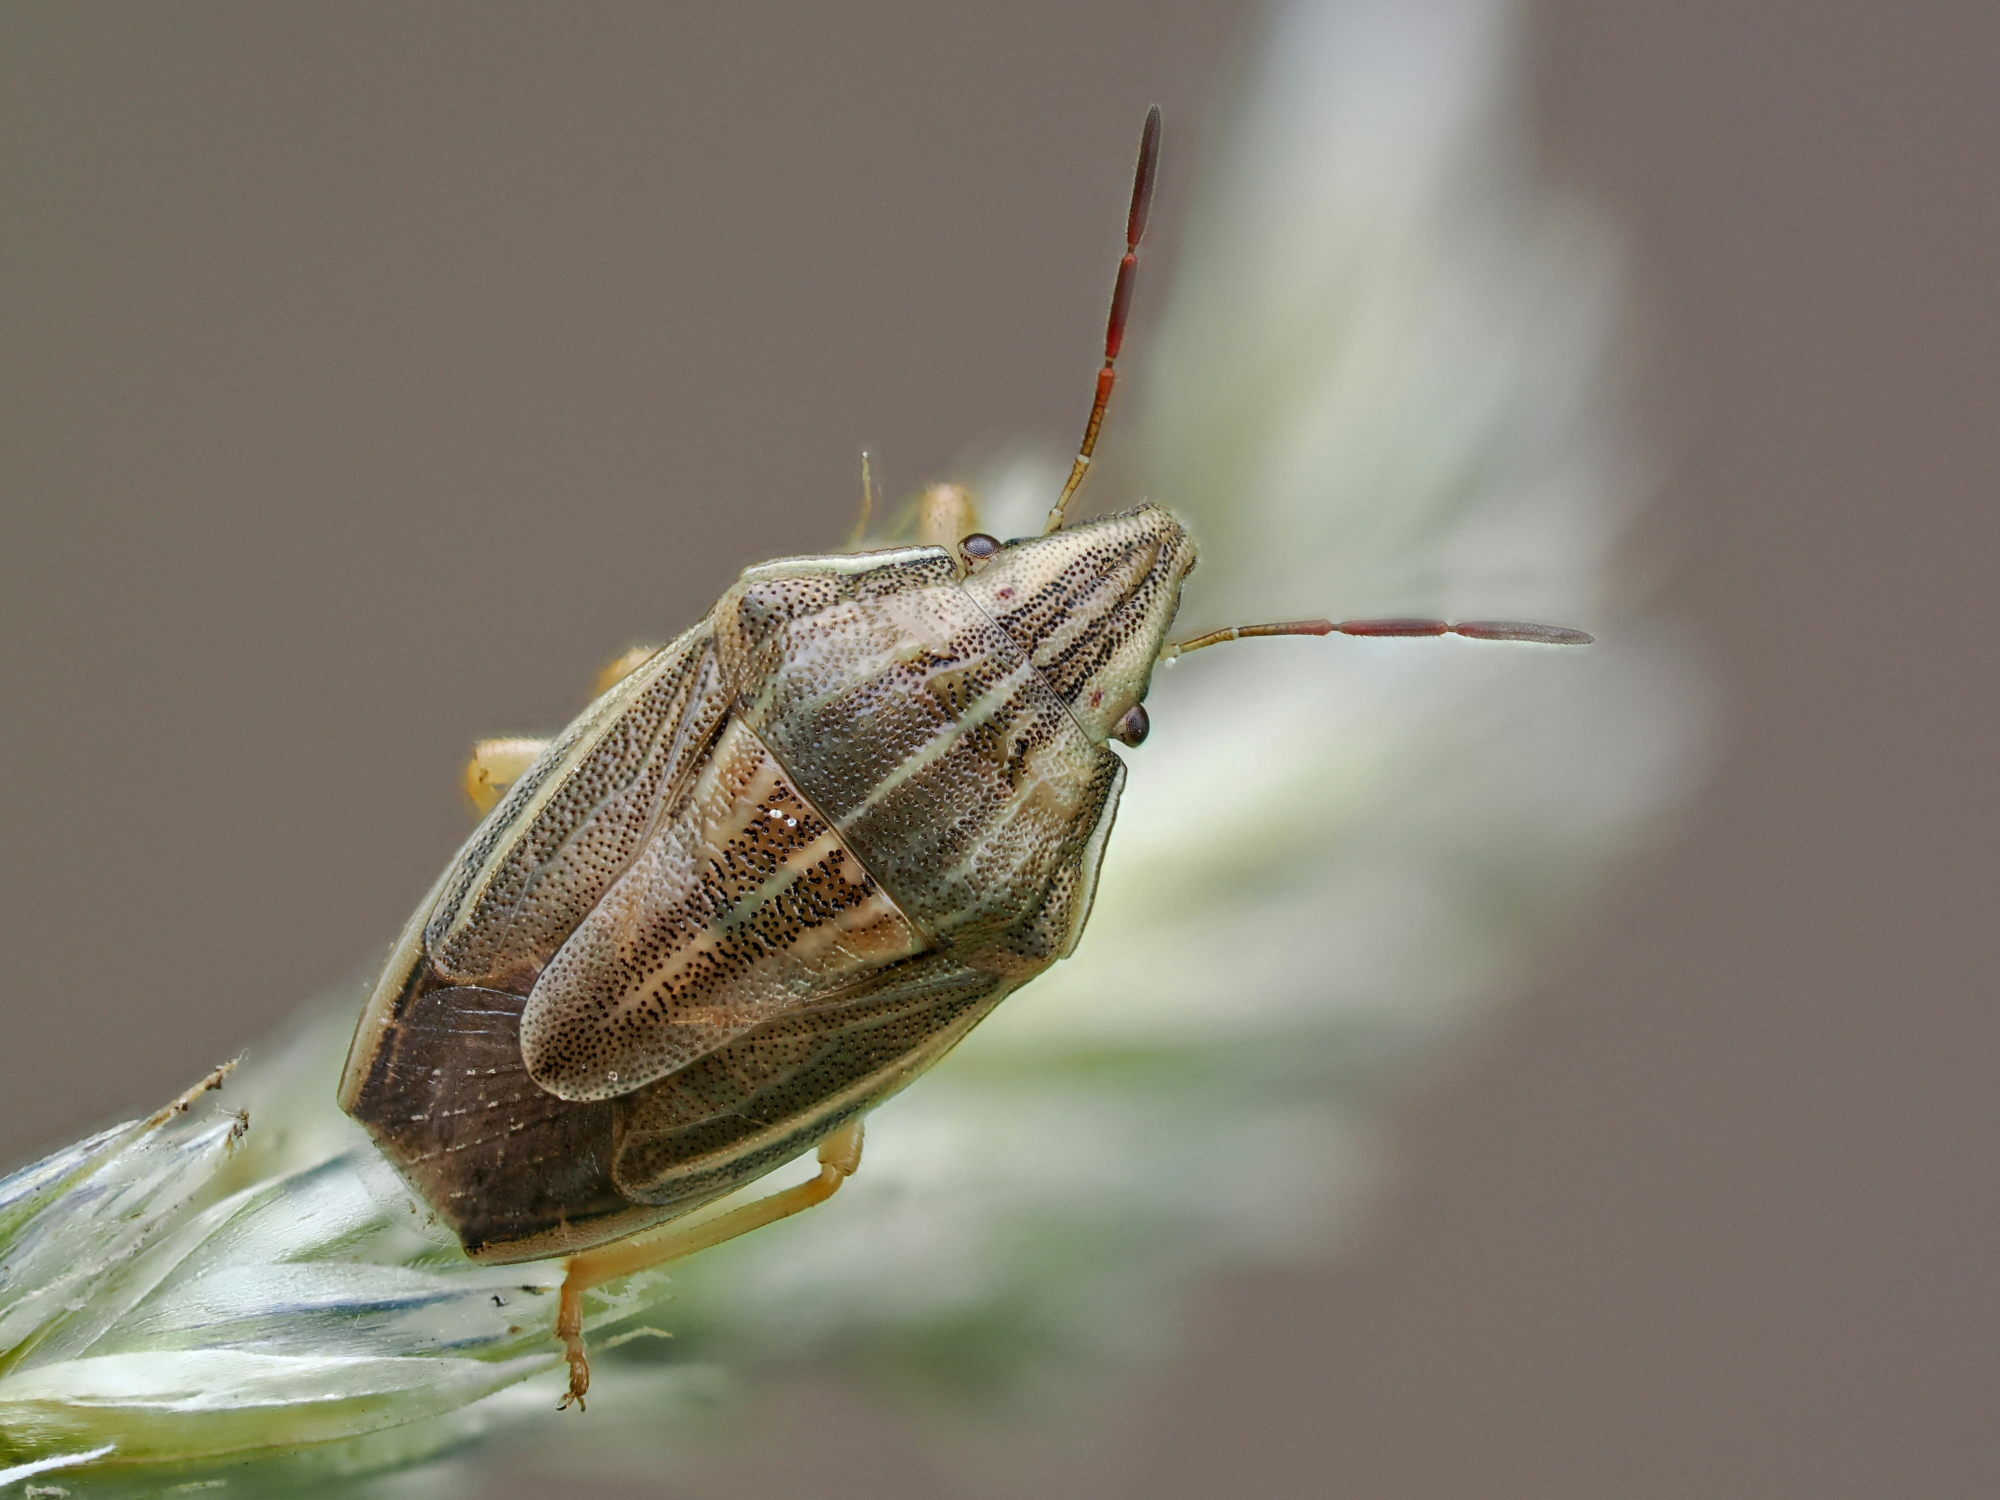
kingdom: Animalia
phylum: Arthropoda
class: Insecta
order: Hemiptera
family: Pentatomidae
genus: Aelia
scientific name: Aelia acuminata
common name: Bishop's mitre
